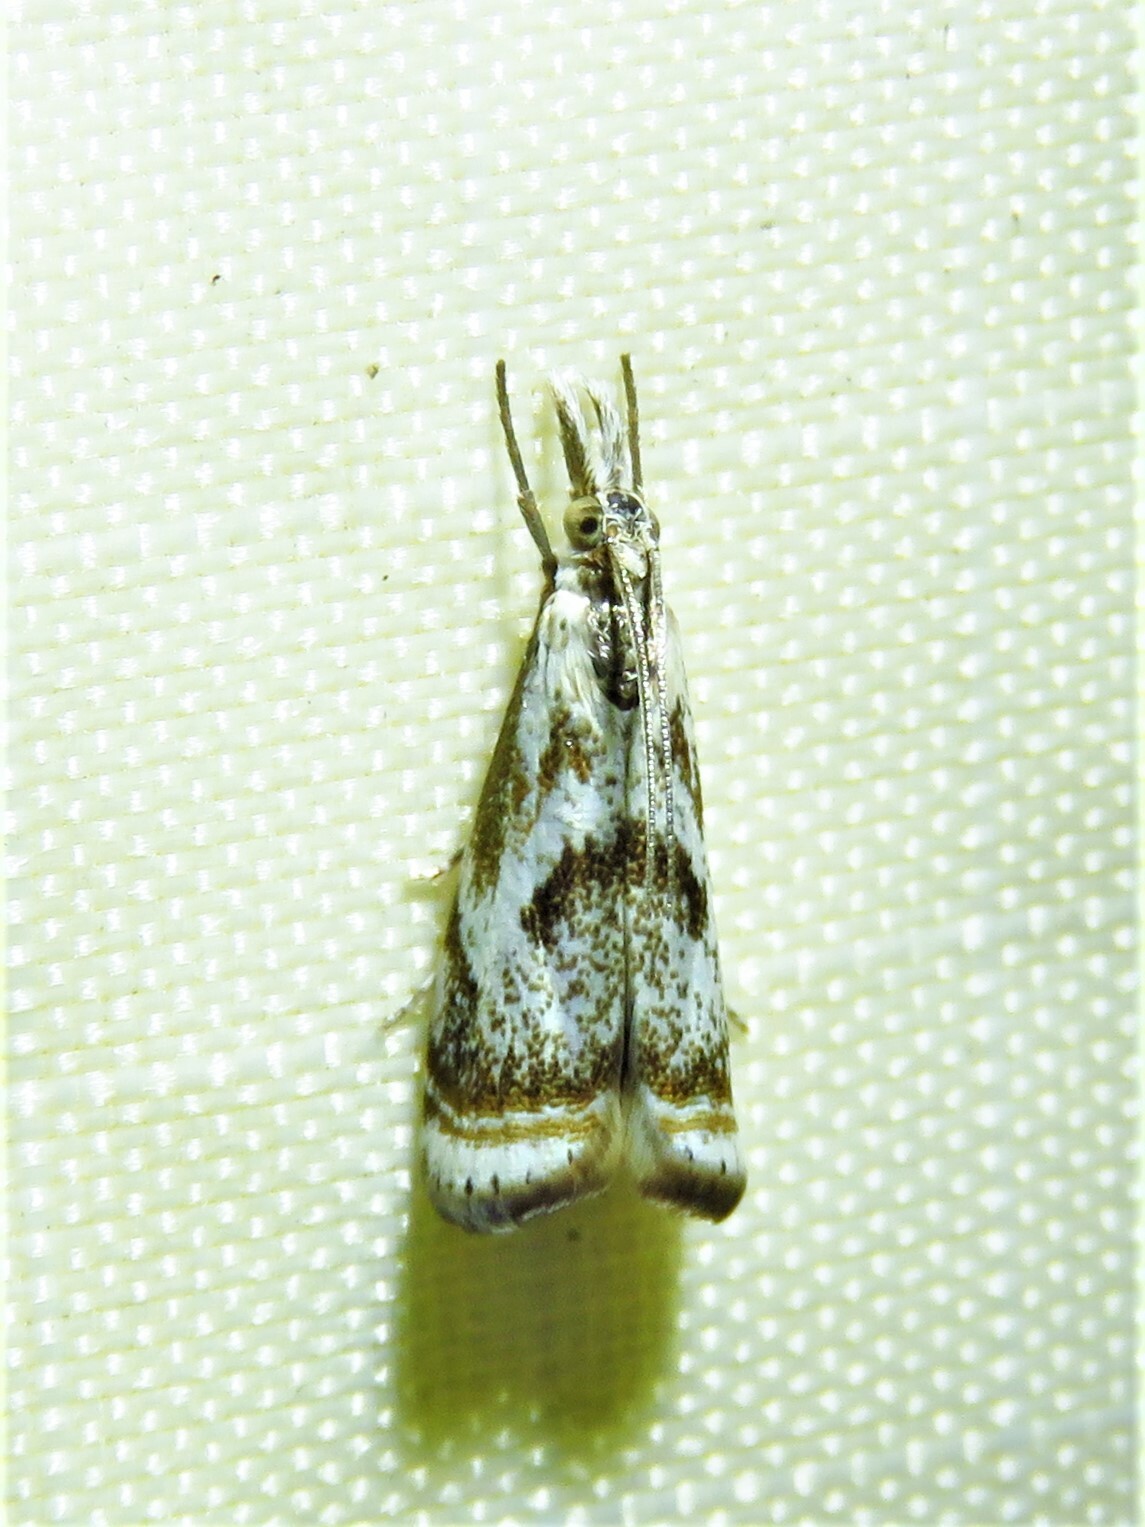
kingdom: Animalia
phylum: Arthropoda
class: Insecta
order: Lepidoptera
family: Crambidae
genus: Microcrambus
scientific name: Microcrambus elegans
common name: Elegant grass-veneer
